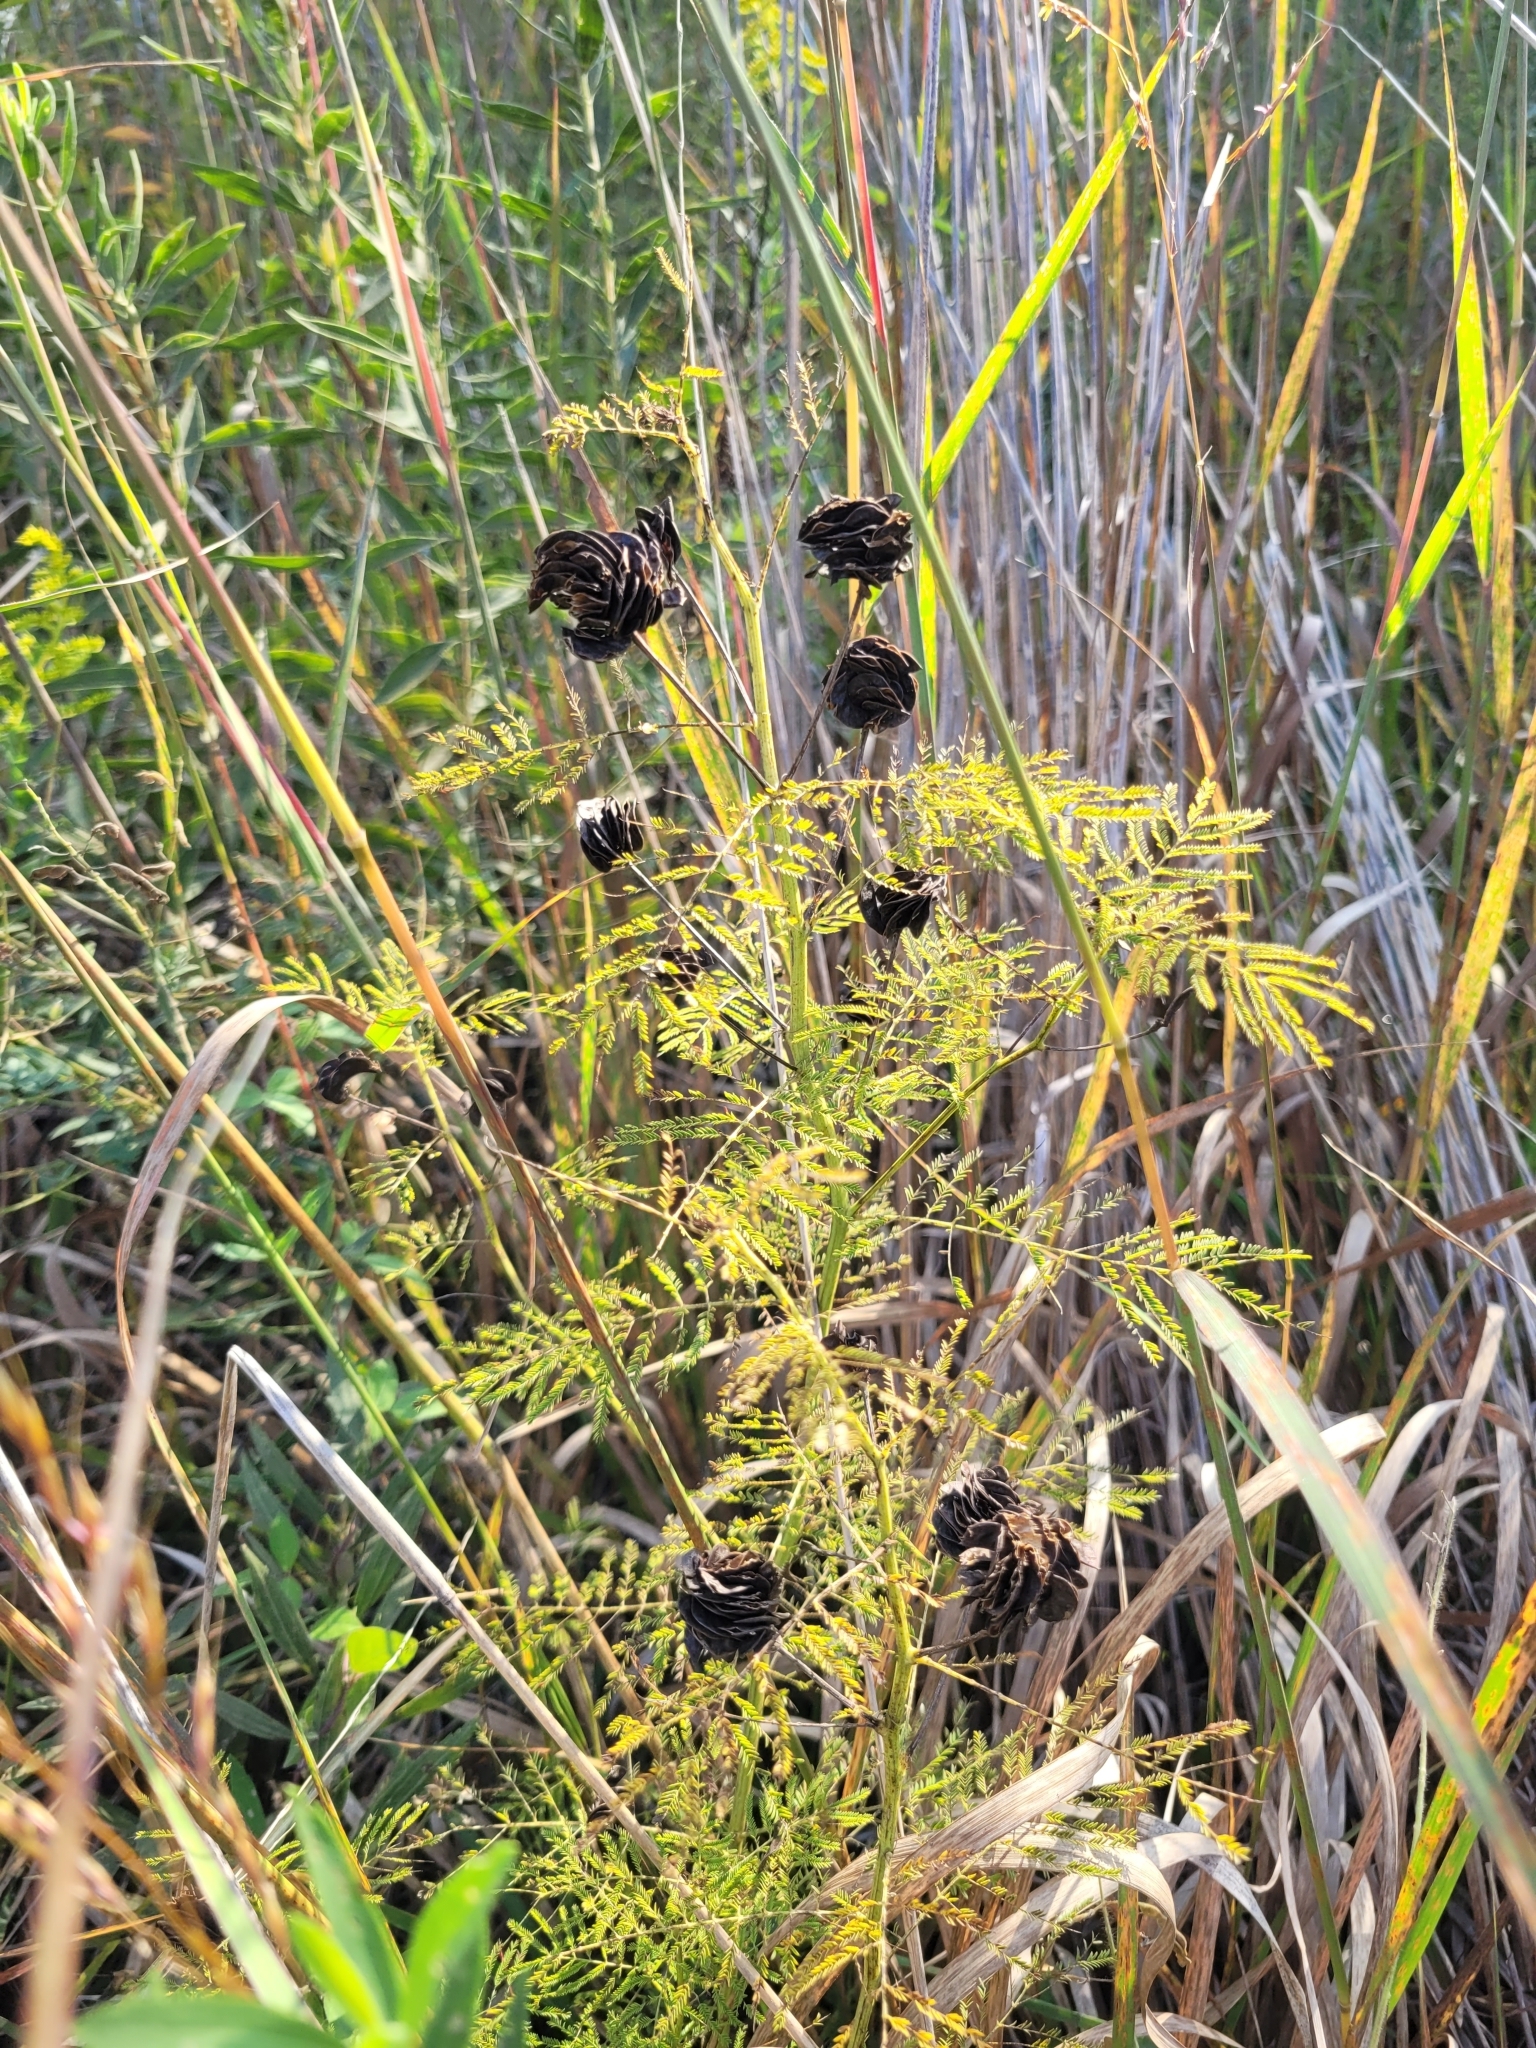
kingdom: Plantae
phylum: Tracheophyta
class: Magnoliopsida
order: Fabales
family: Fabaceae
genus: Desmanthus
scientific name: Desmanthus illinoensis
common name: Illinois bundle-flower
